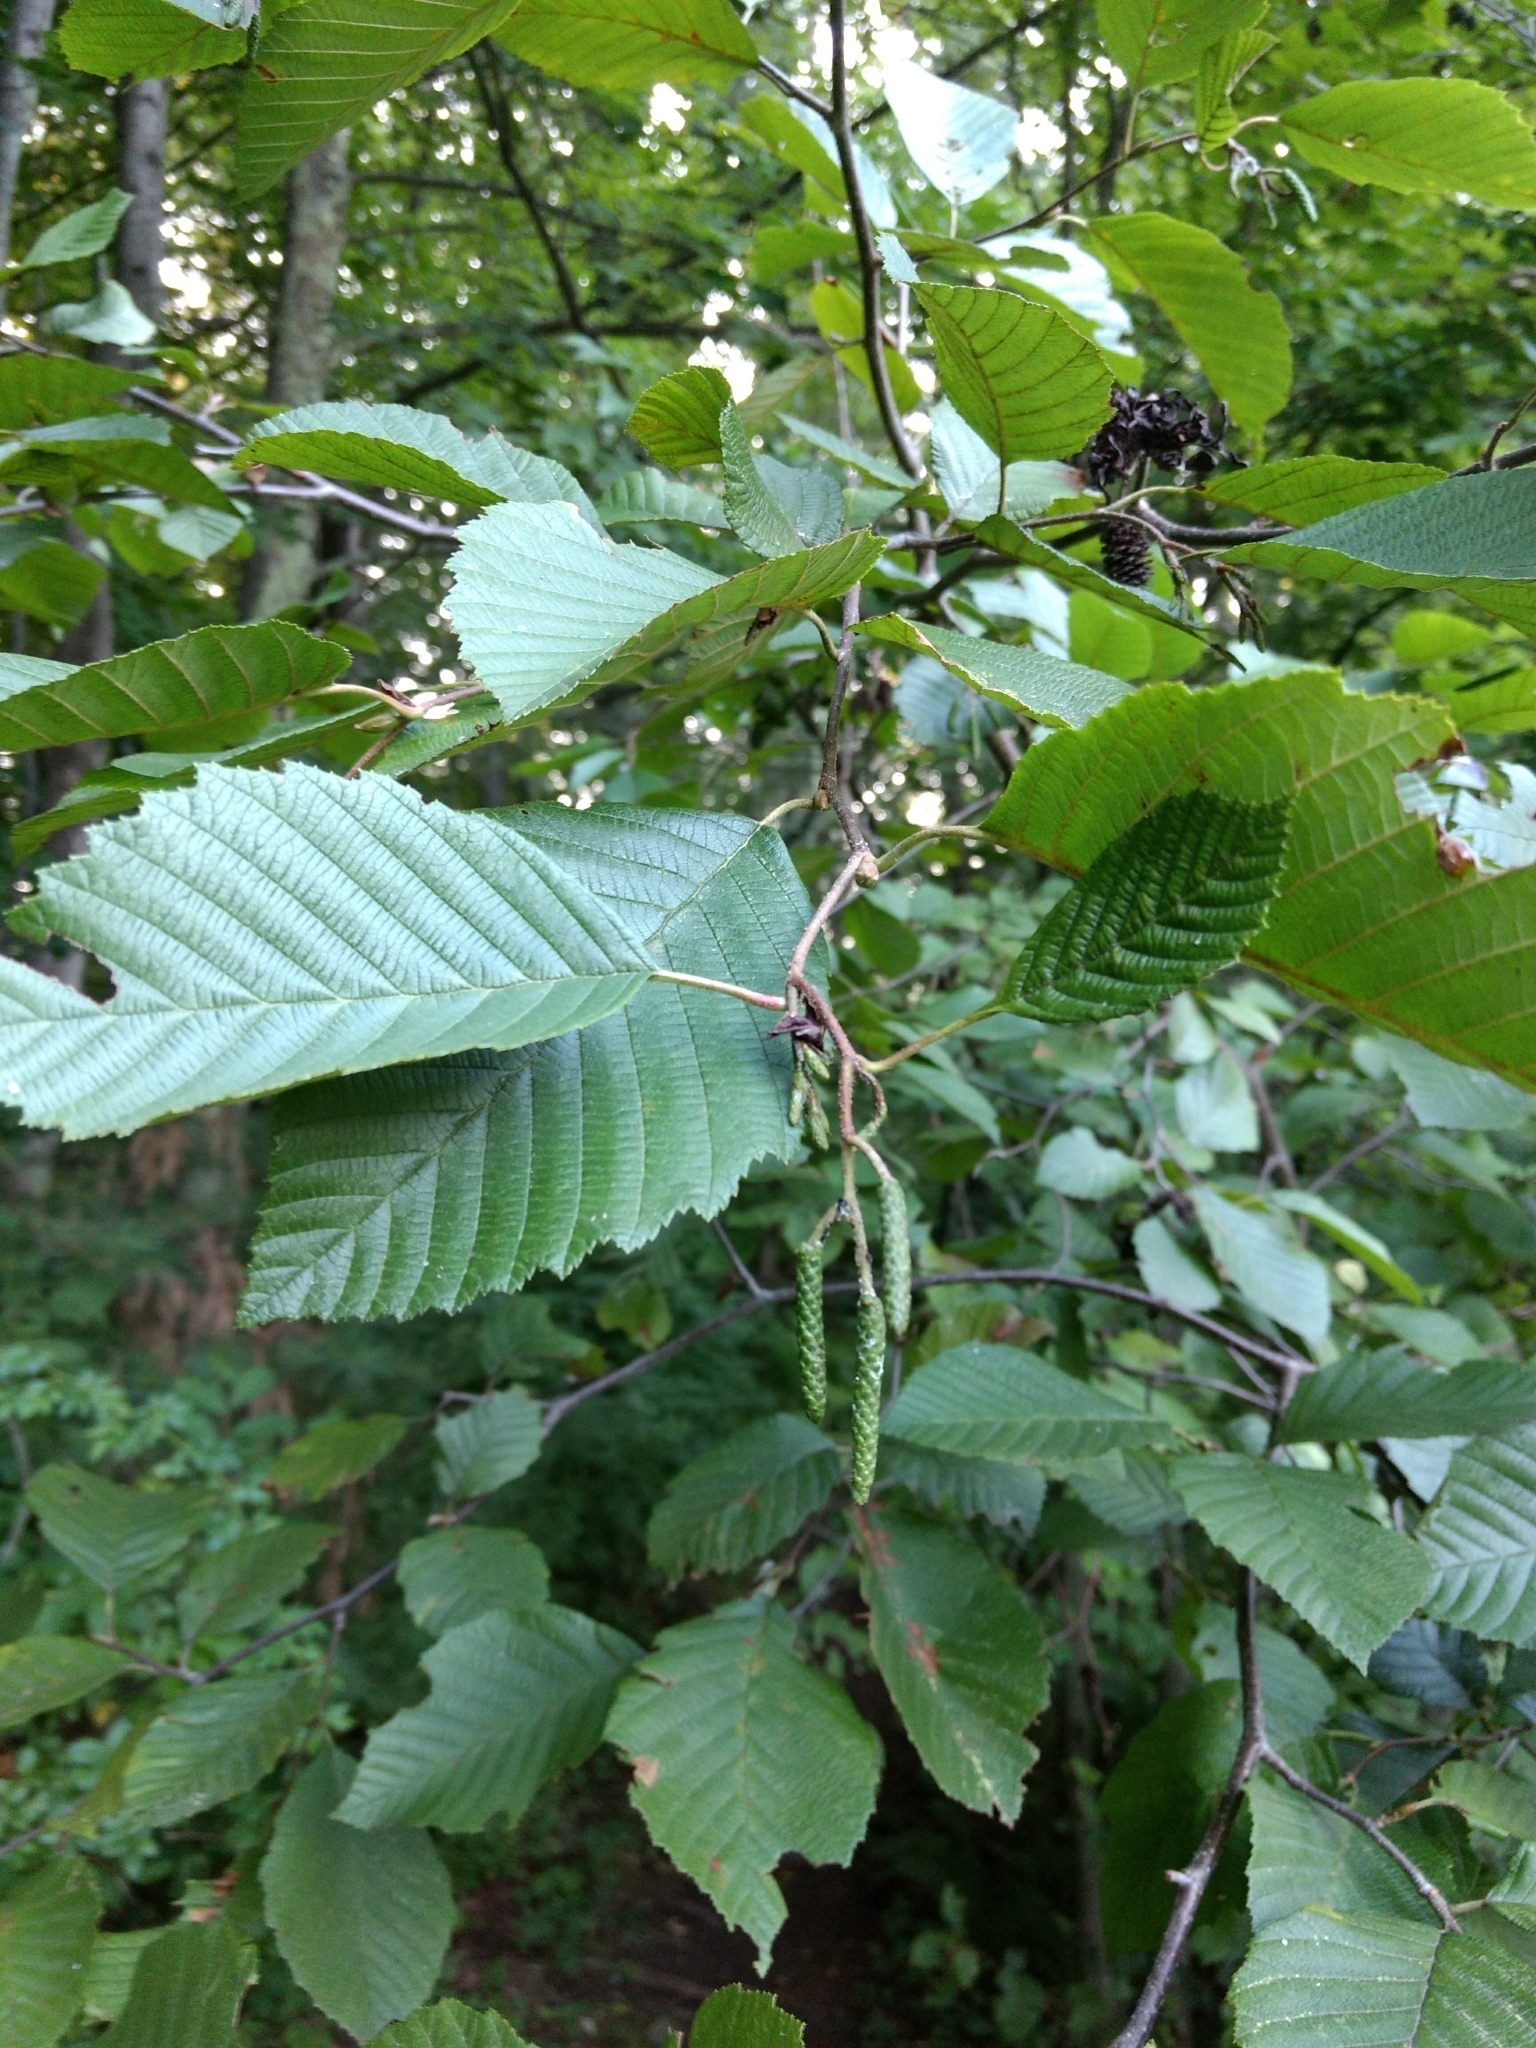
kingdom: Plantae
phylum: Tracheophyta
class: Magnoliopsida
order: Fagales
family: Betulaceae
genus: Alnus
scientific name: Alnus incana
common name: Grey alder
